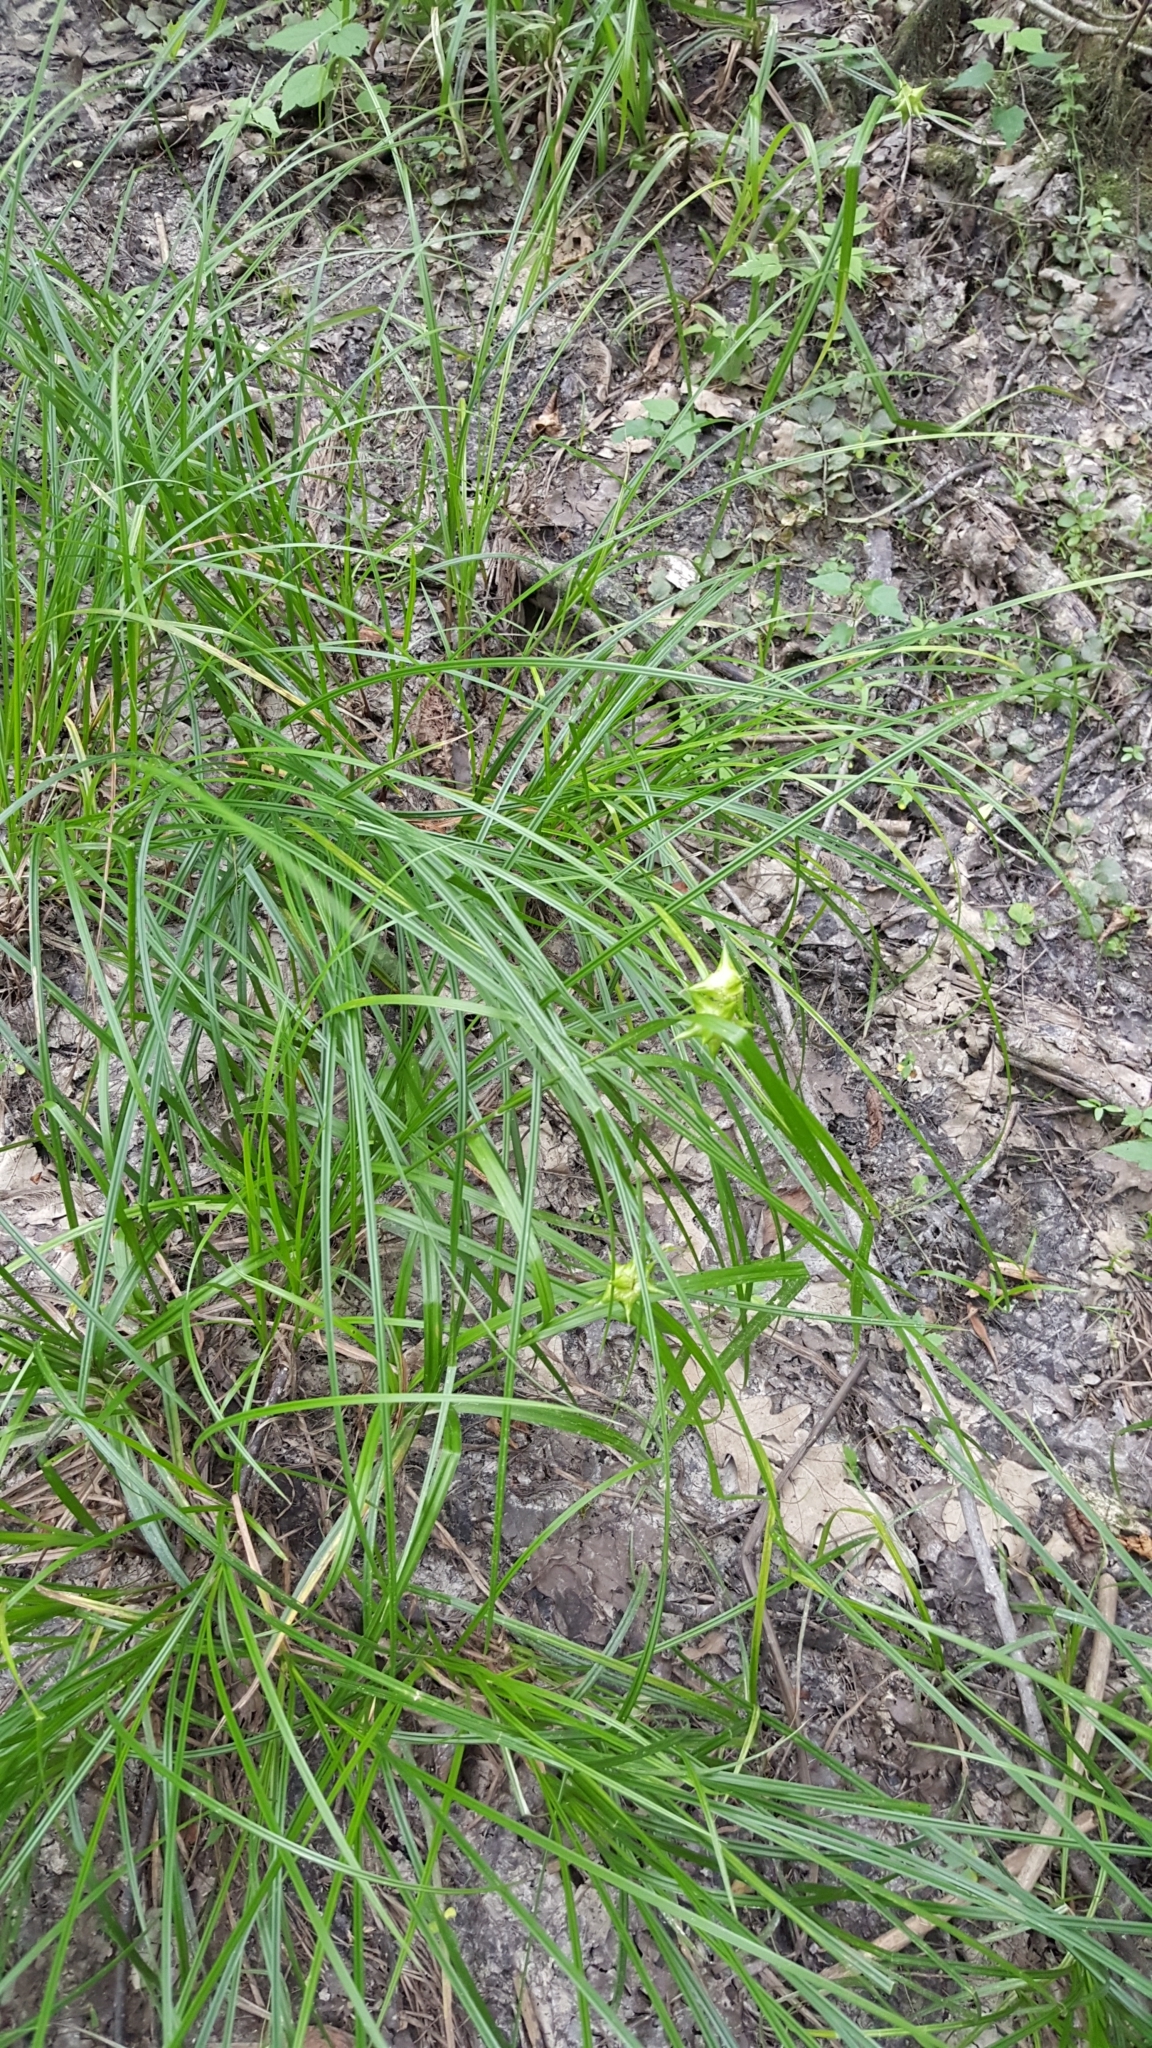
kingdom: Plantae
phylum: Tracheophyta
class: Liliopsida
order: Poales
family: Cyperaceae
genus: Carex
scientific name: Carex grayi
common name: Asa gray's sedge
